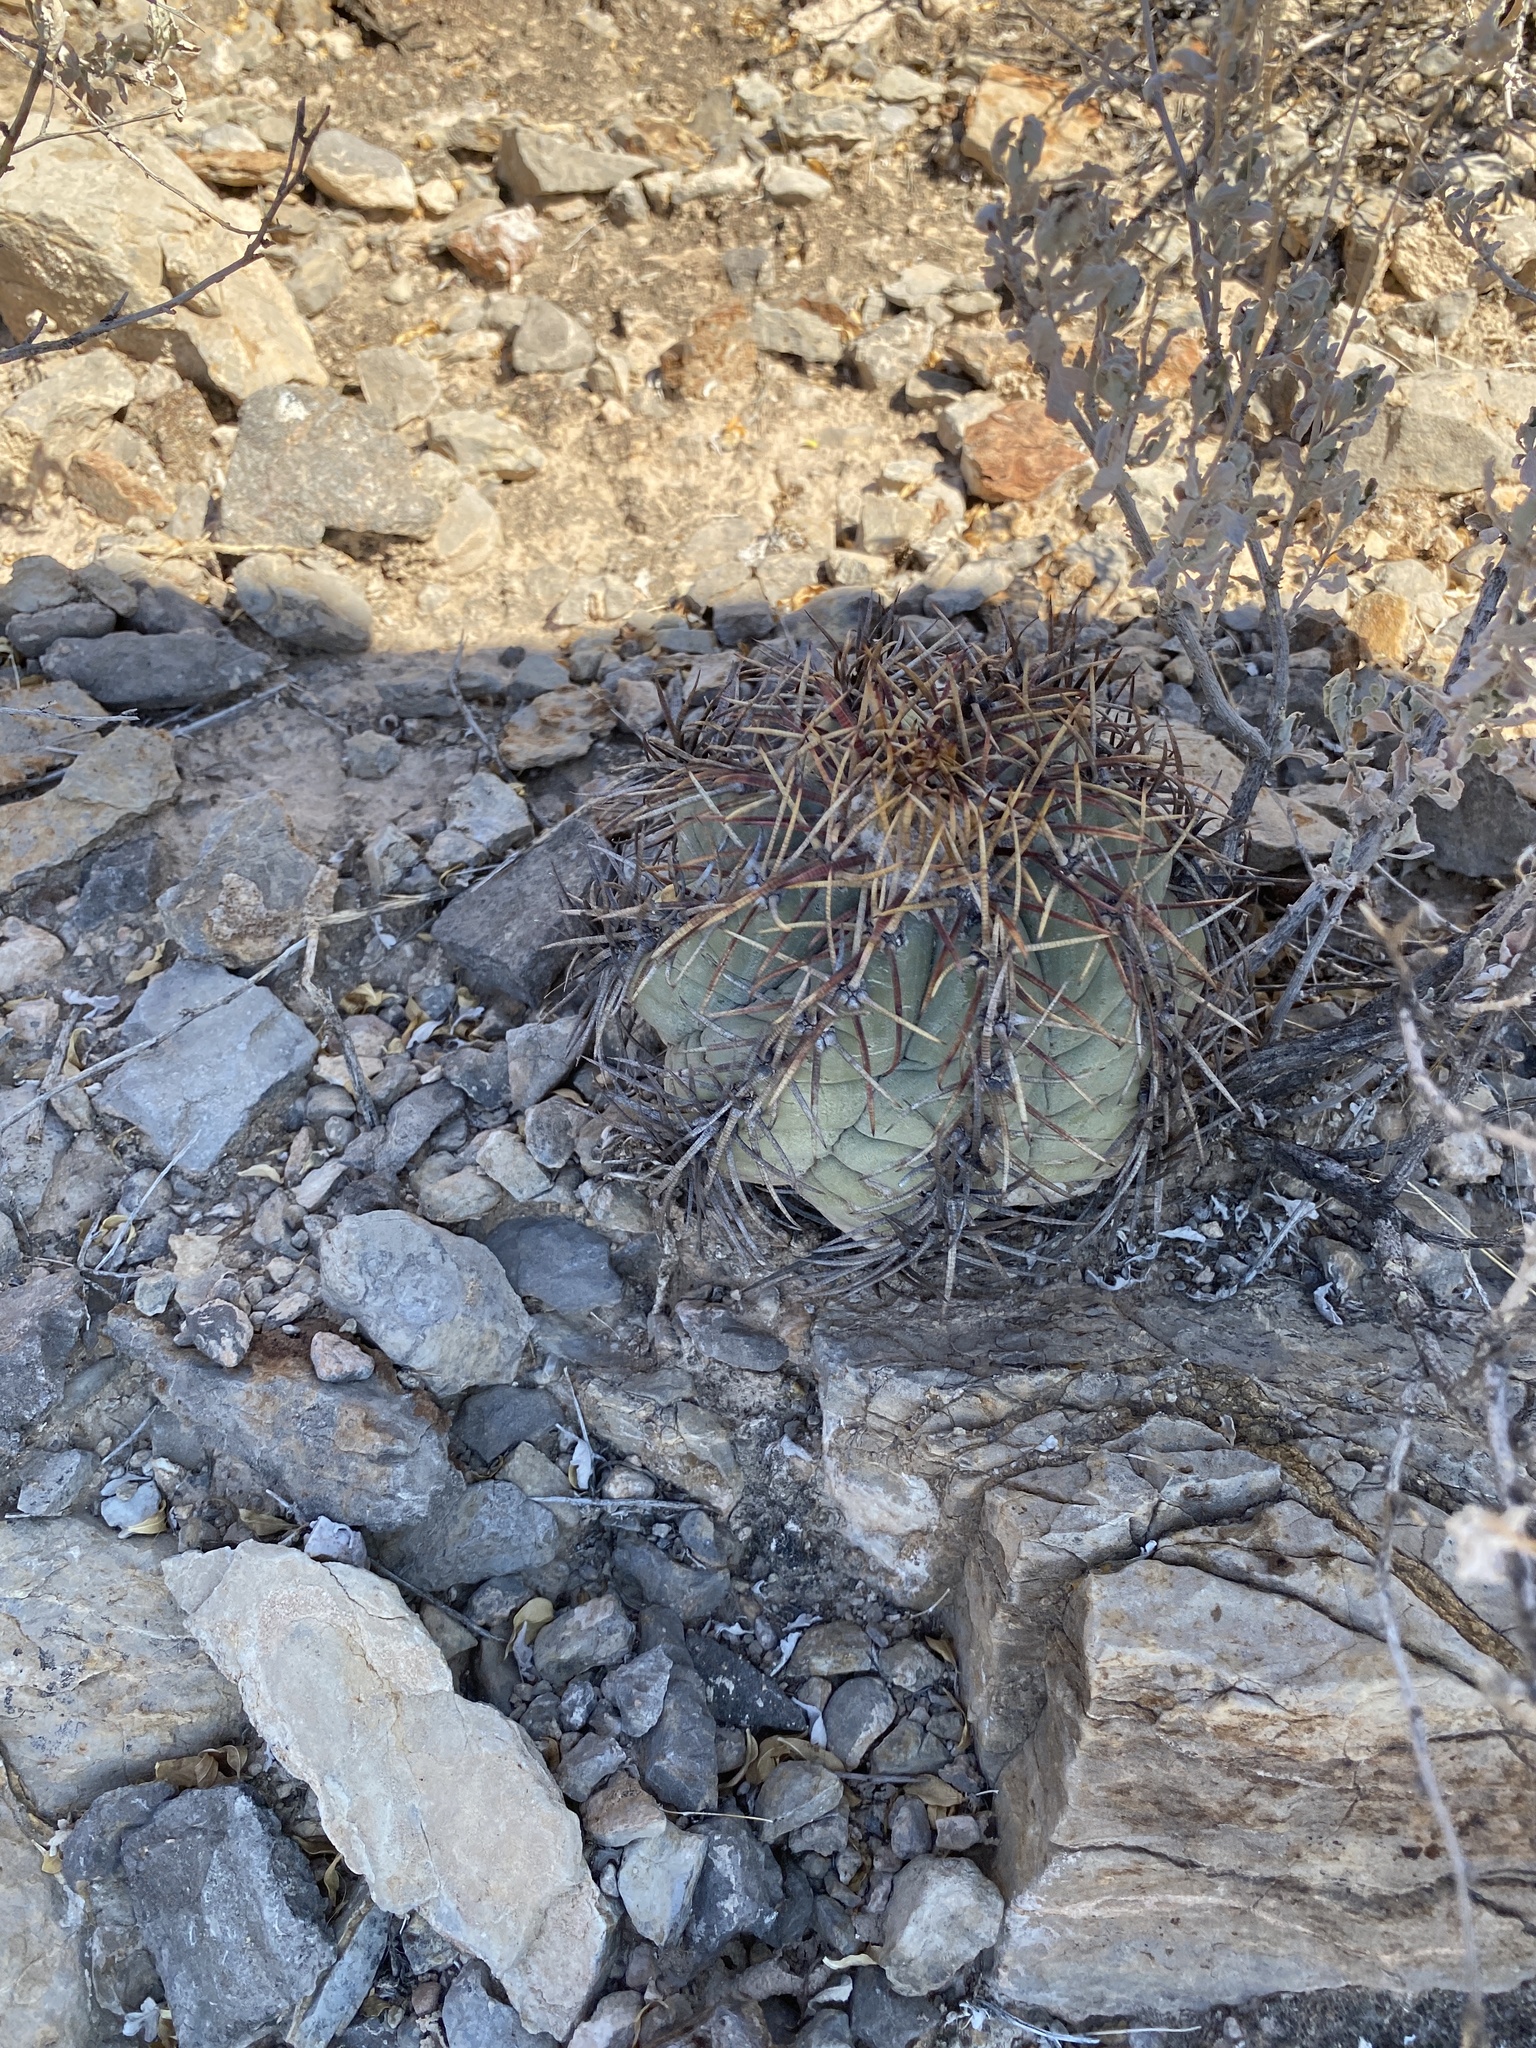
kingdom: Plantae
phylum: Tracheophyta
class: Magnoliopsida
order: Caryophyllales
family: Cactaceae
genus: Echinocactus
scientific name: Echinocactus horizonthalonius
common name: Devilshead
